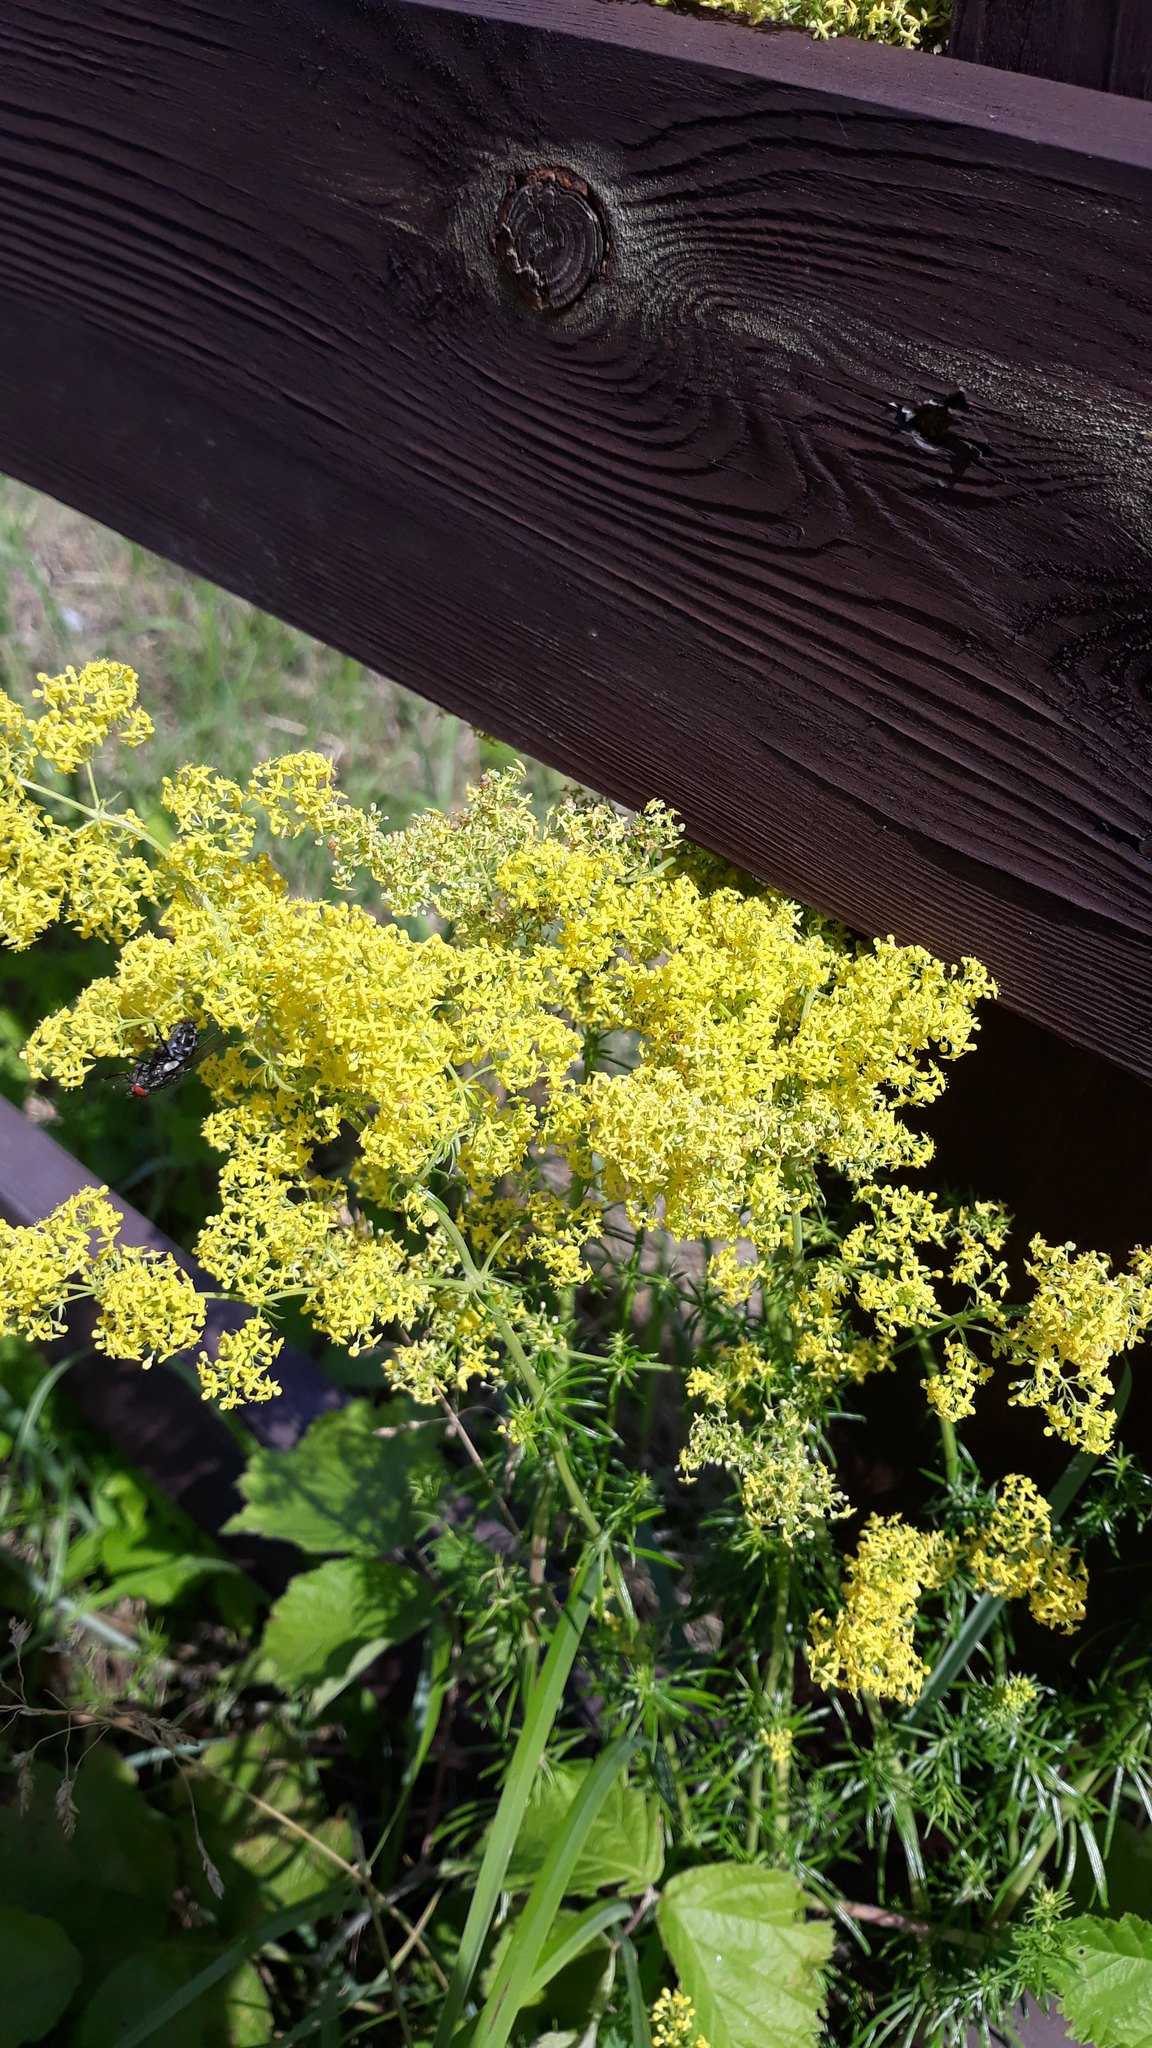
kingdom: Plantae
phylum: Tracheophyta
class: Magnoliopsida
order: Gentianales
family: Rubiaceae
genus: Galium
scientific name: Galium verum
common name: Lady's bedstraw
